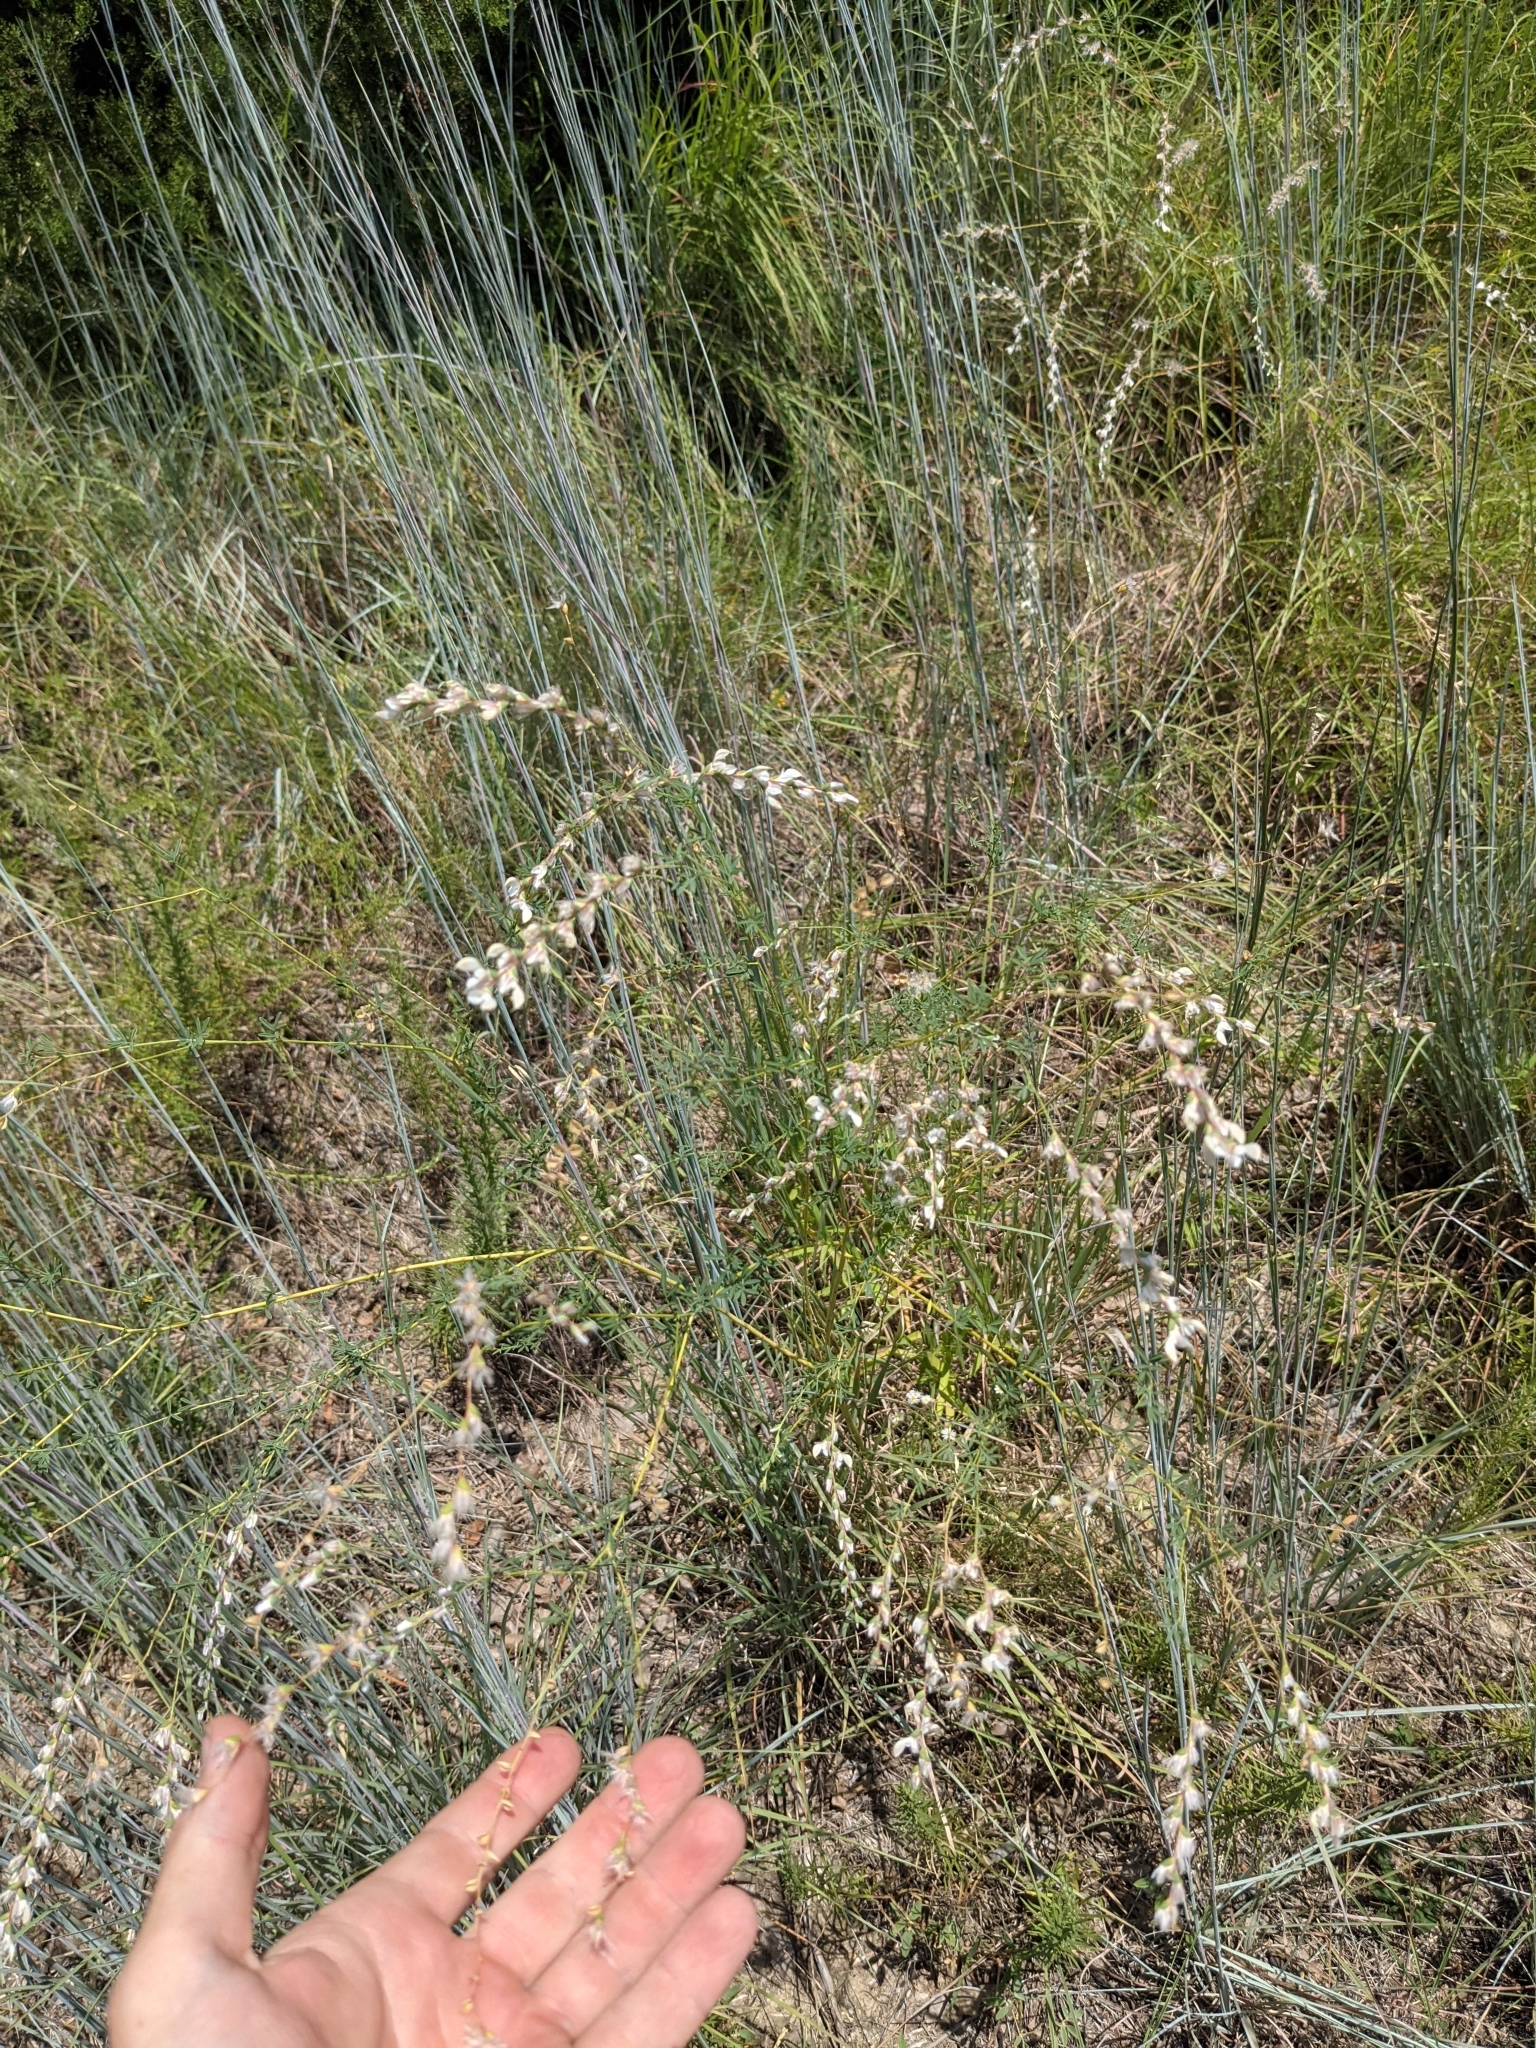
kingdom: Plantae
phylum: Tracheophyta
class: Magnoliopsida
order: Fabales
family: Fabaceae
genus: Dalea
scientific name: Dalea enneandra
